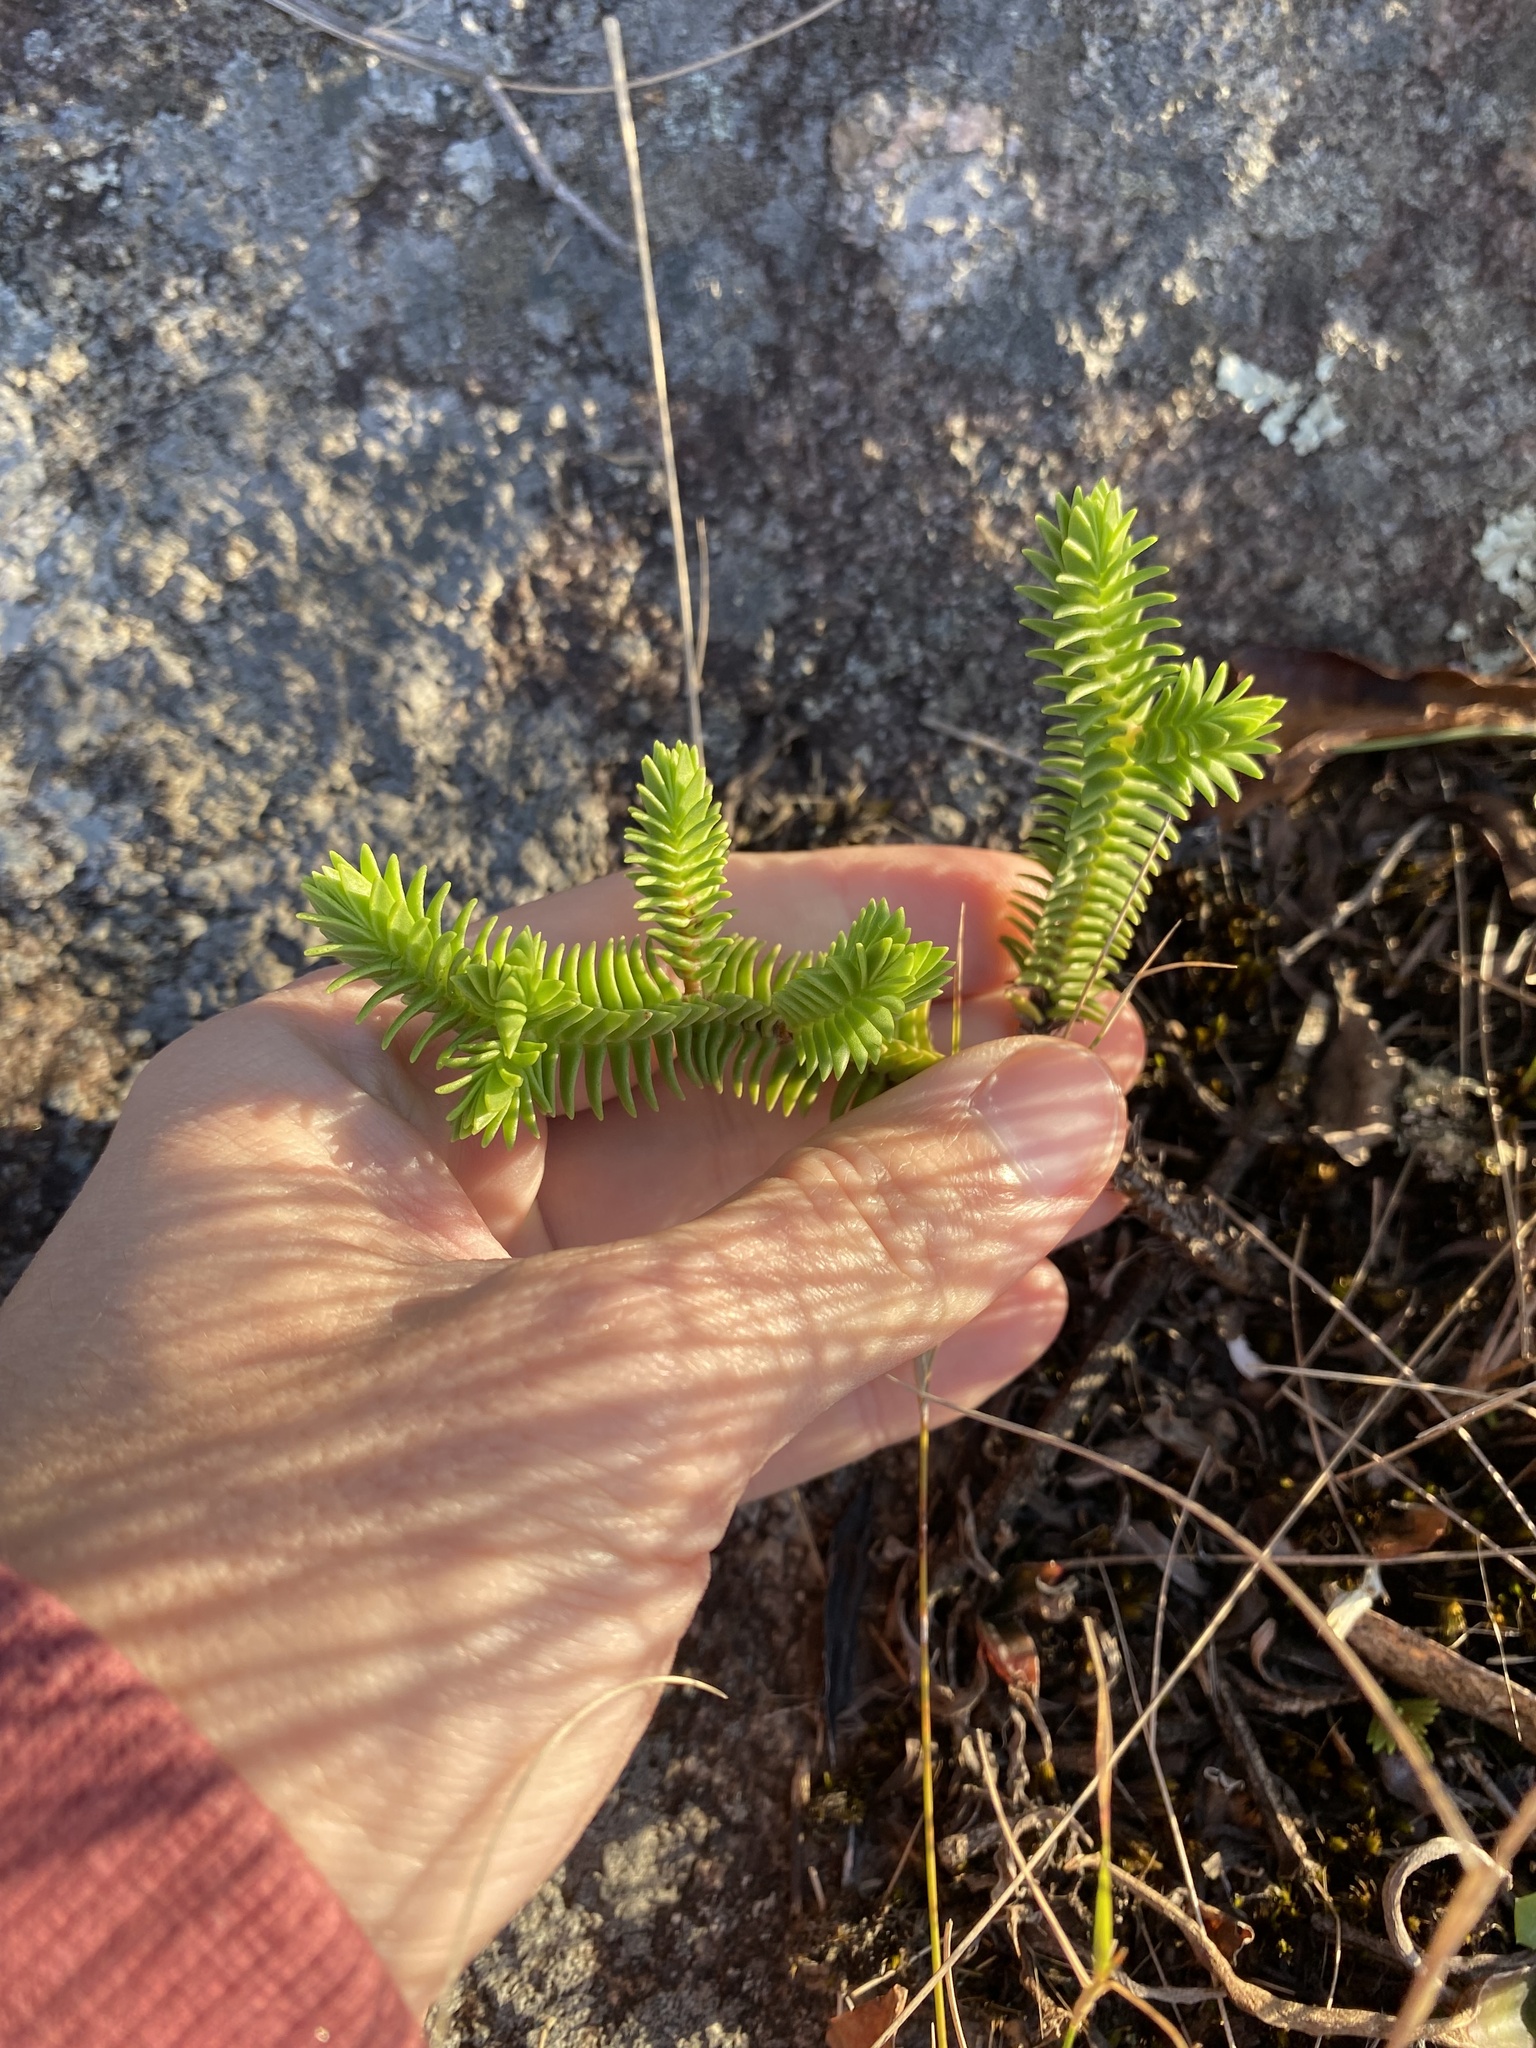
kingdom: Plantae
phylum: Tracheophyta
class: Magnoliopsida
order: Saxifragales
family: Crassulaceae
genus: Crassula
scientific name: Crassula ericoides
